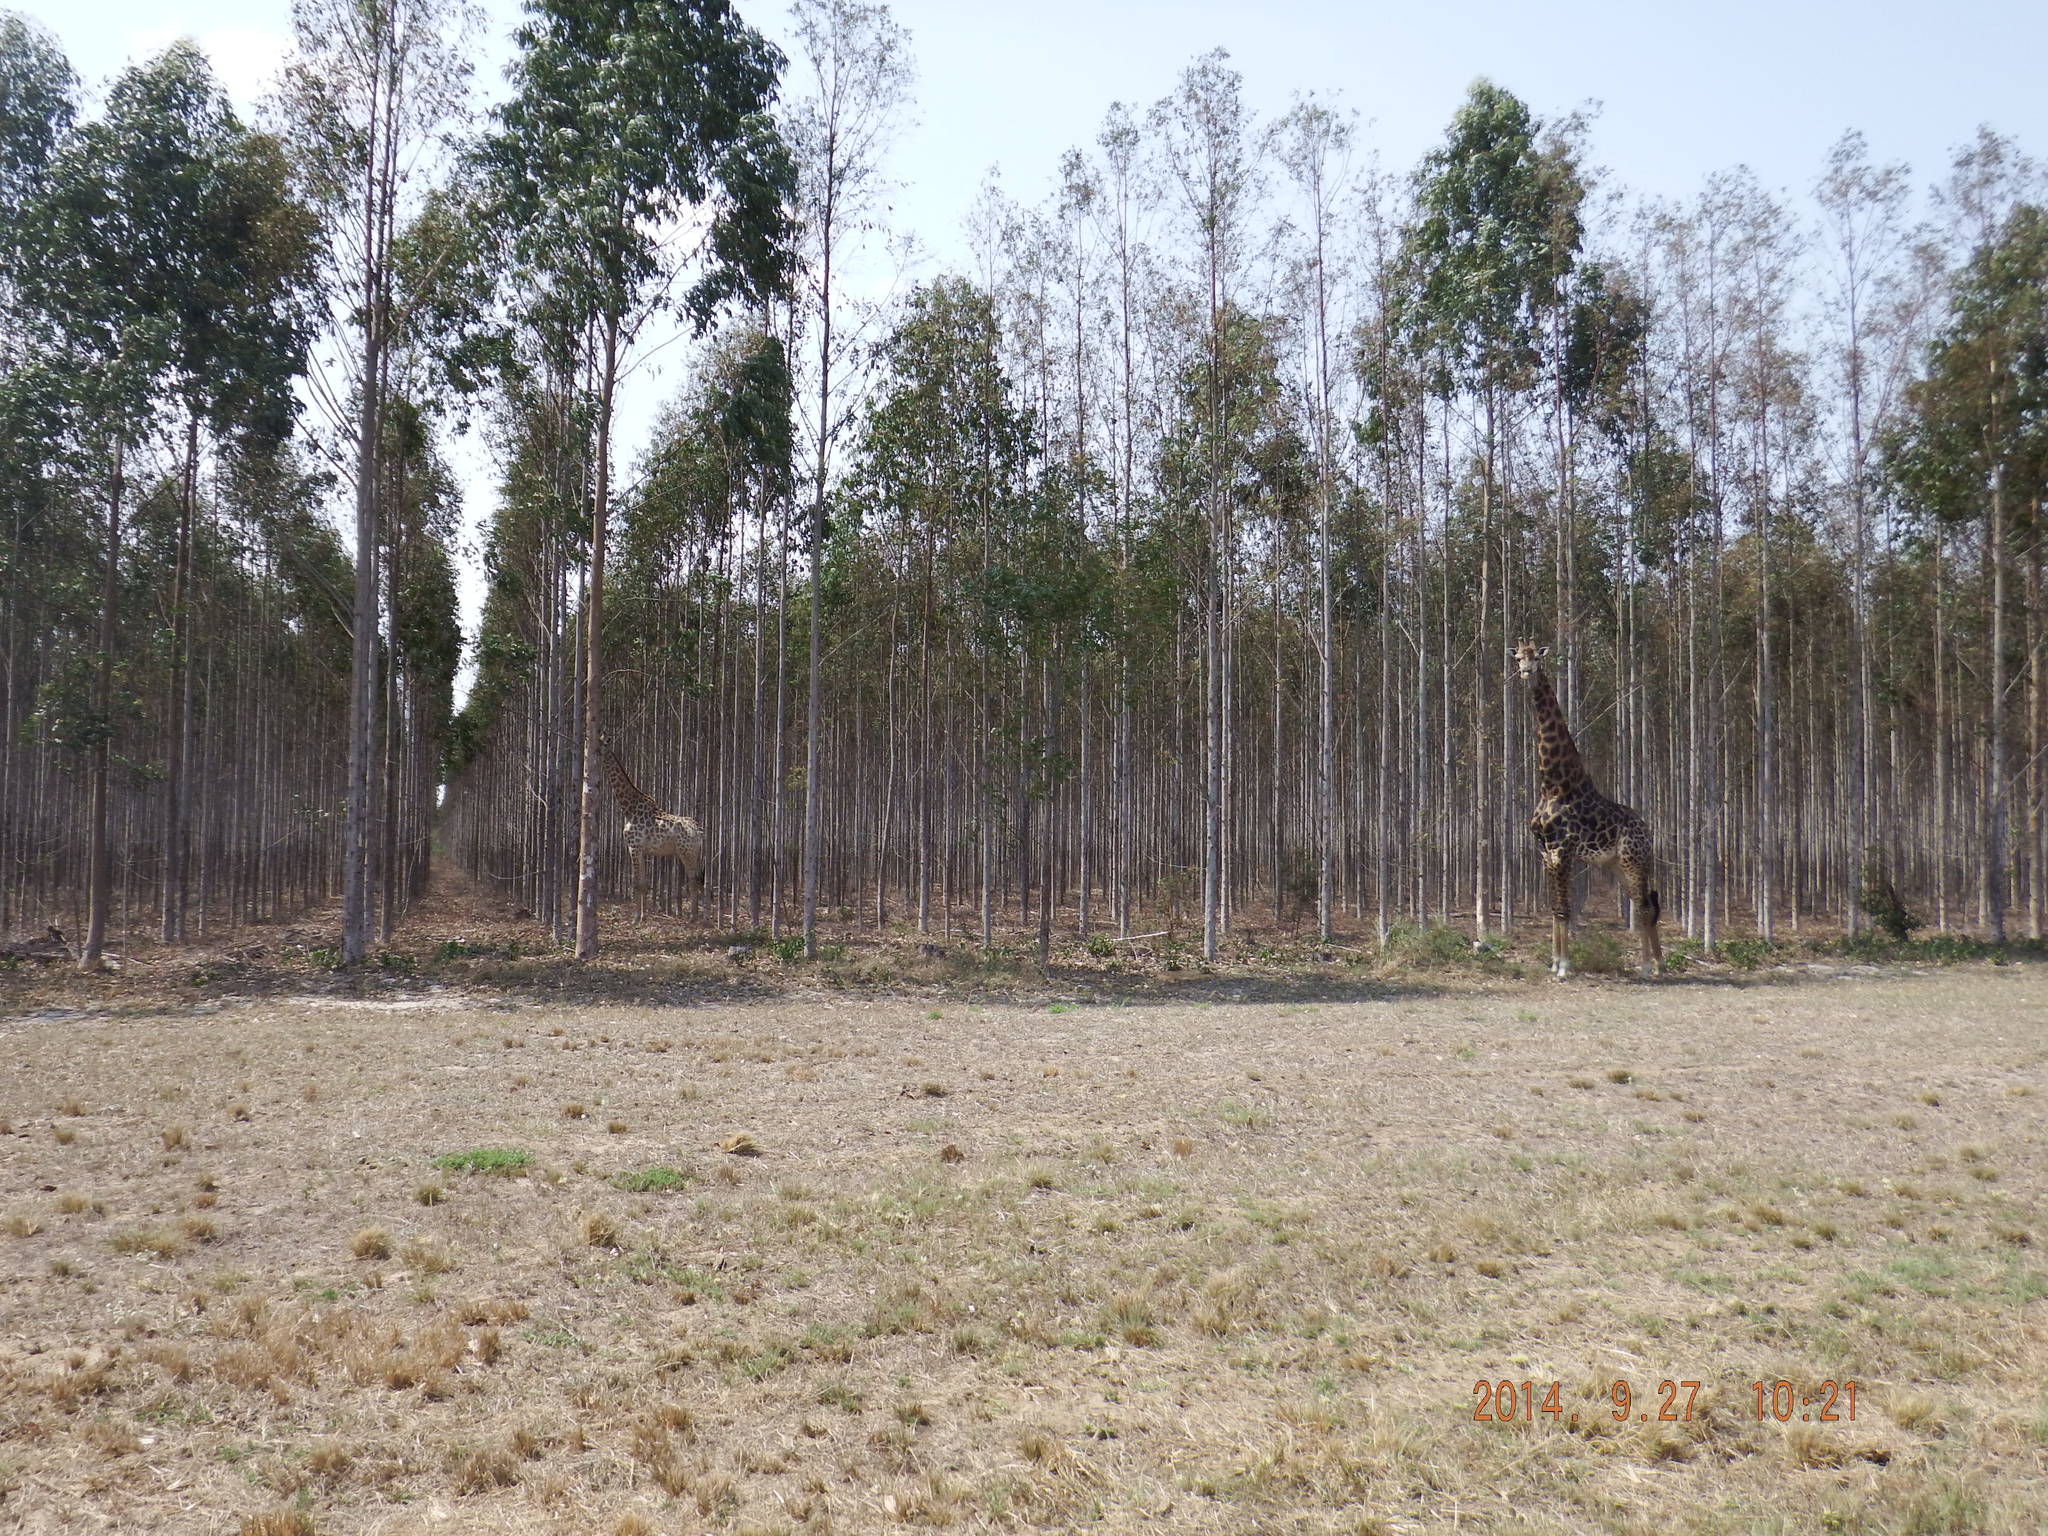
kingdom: Animalia
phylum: Chordata
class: Mammalia
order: Artiodactyla
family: Giraffidae
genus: Giraffa
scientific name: Giraffa giraffa
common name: Southern giraffe
